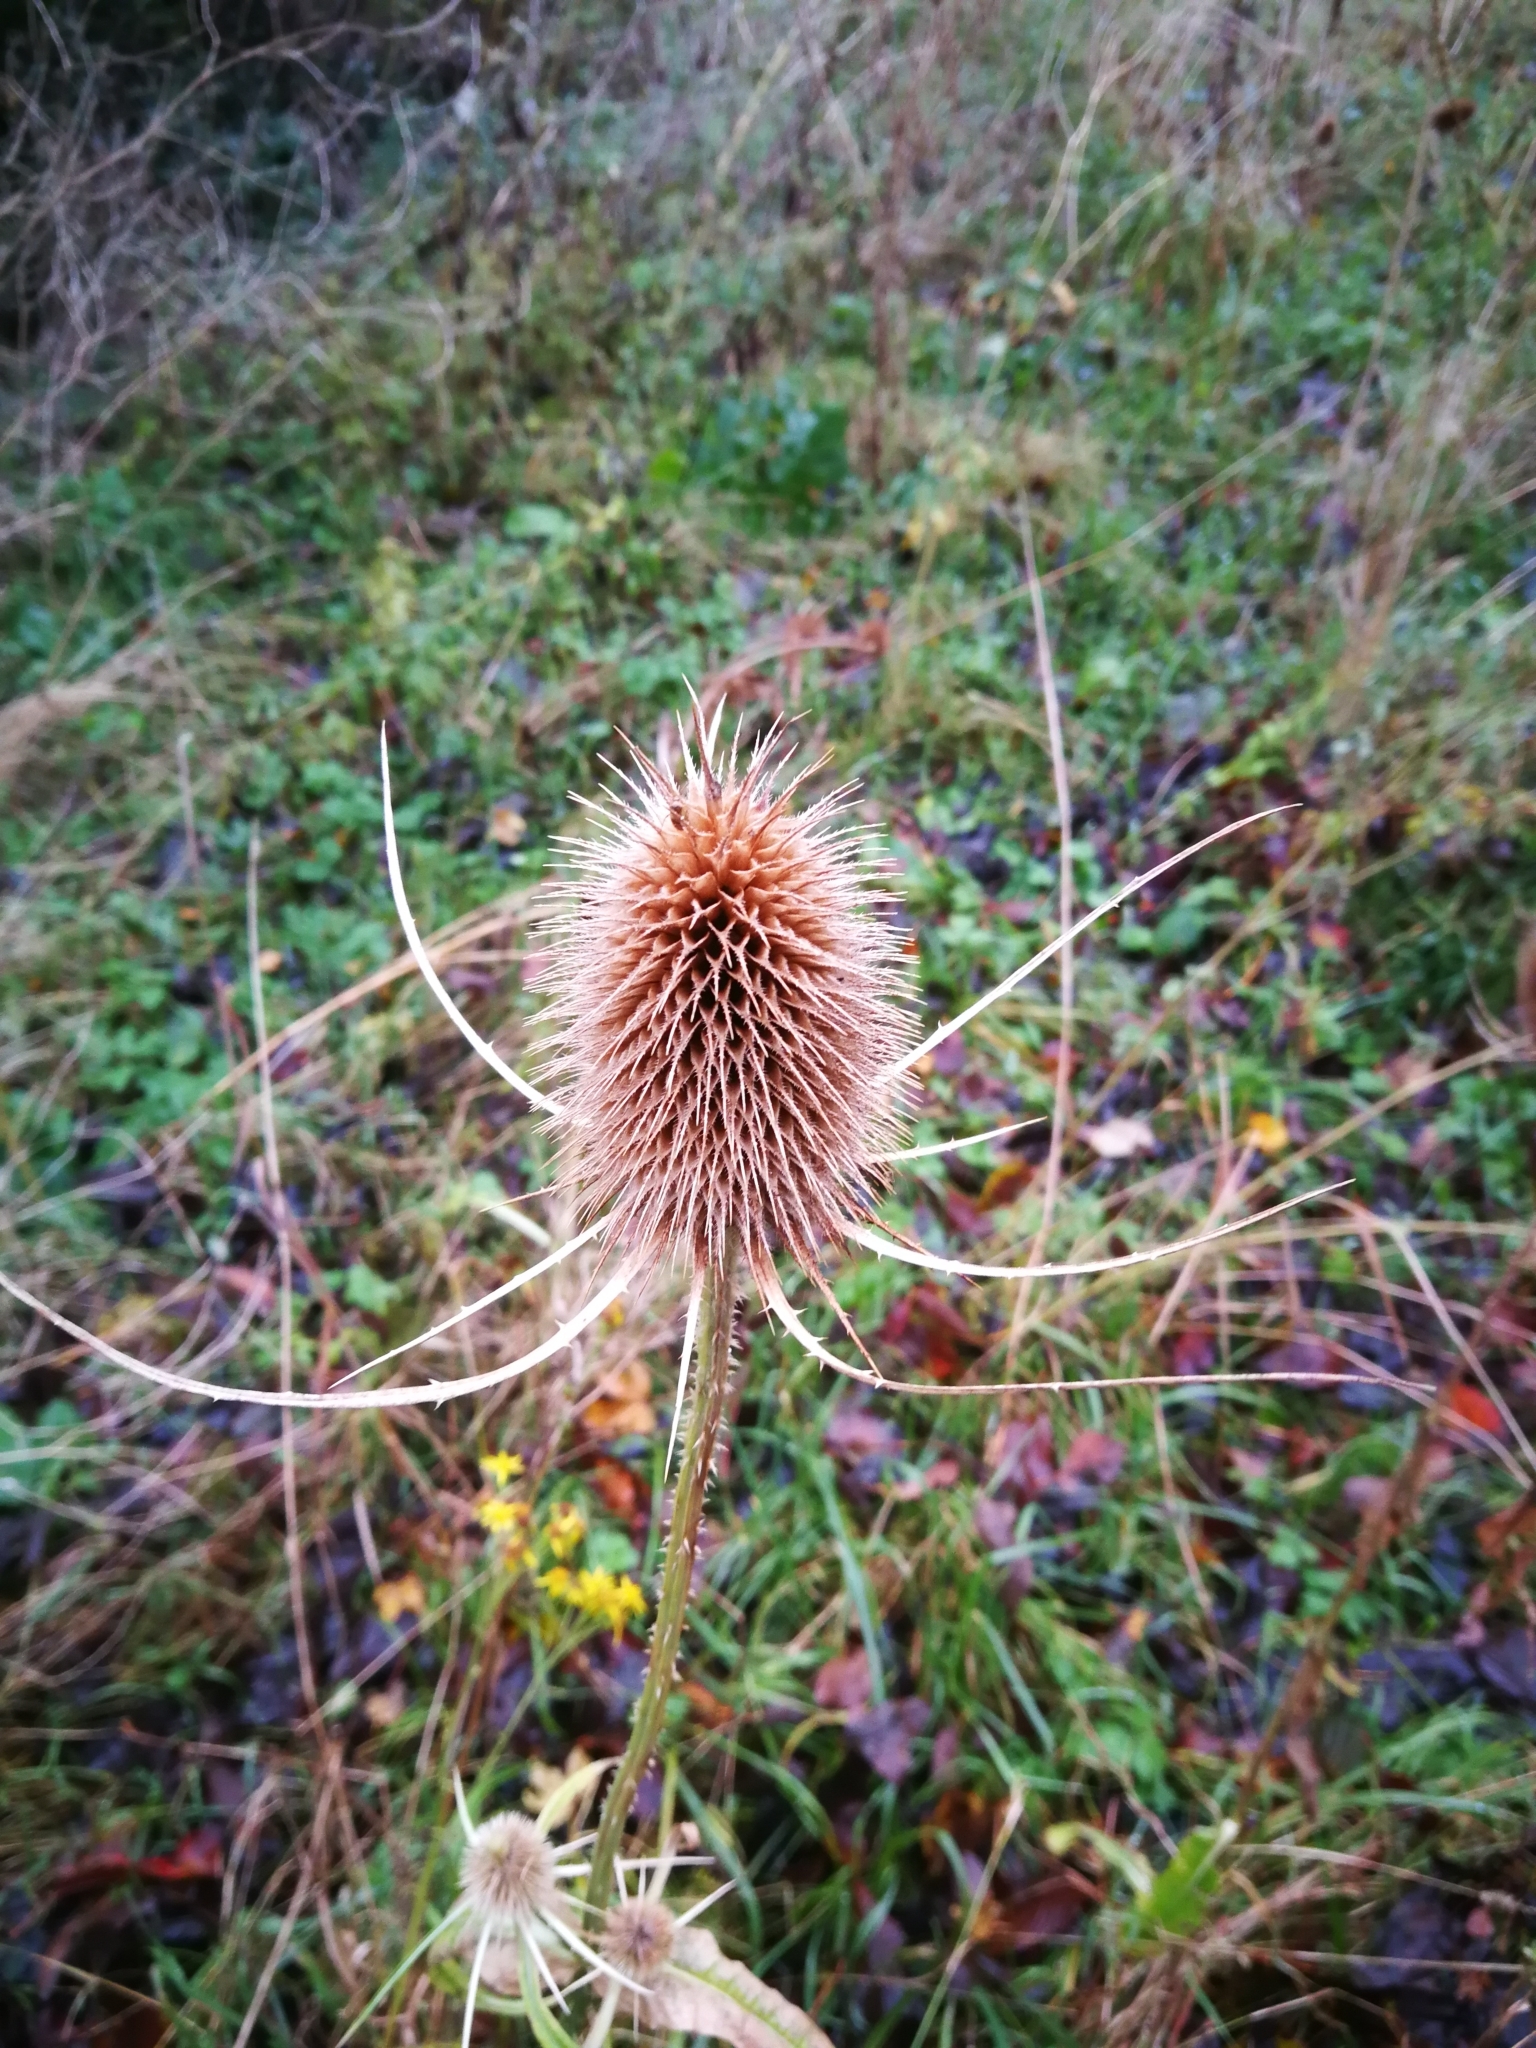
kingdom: Plantae
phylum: Tracheophyta
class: Magnoliopsida
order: Dipsacales
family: Caprifoliaceae
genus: Dipsacus
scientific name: Dipsacus fullonum
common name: Teasel
